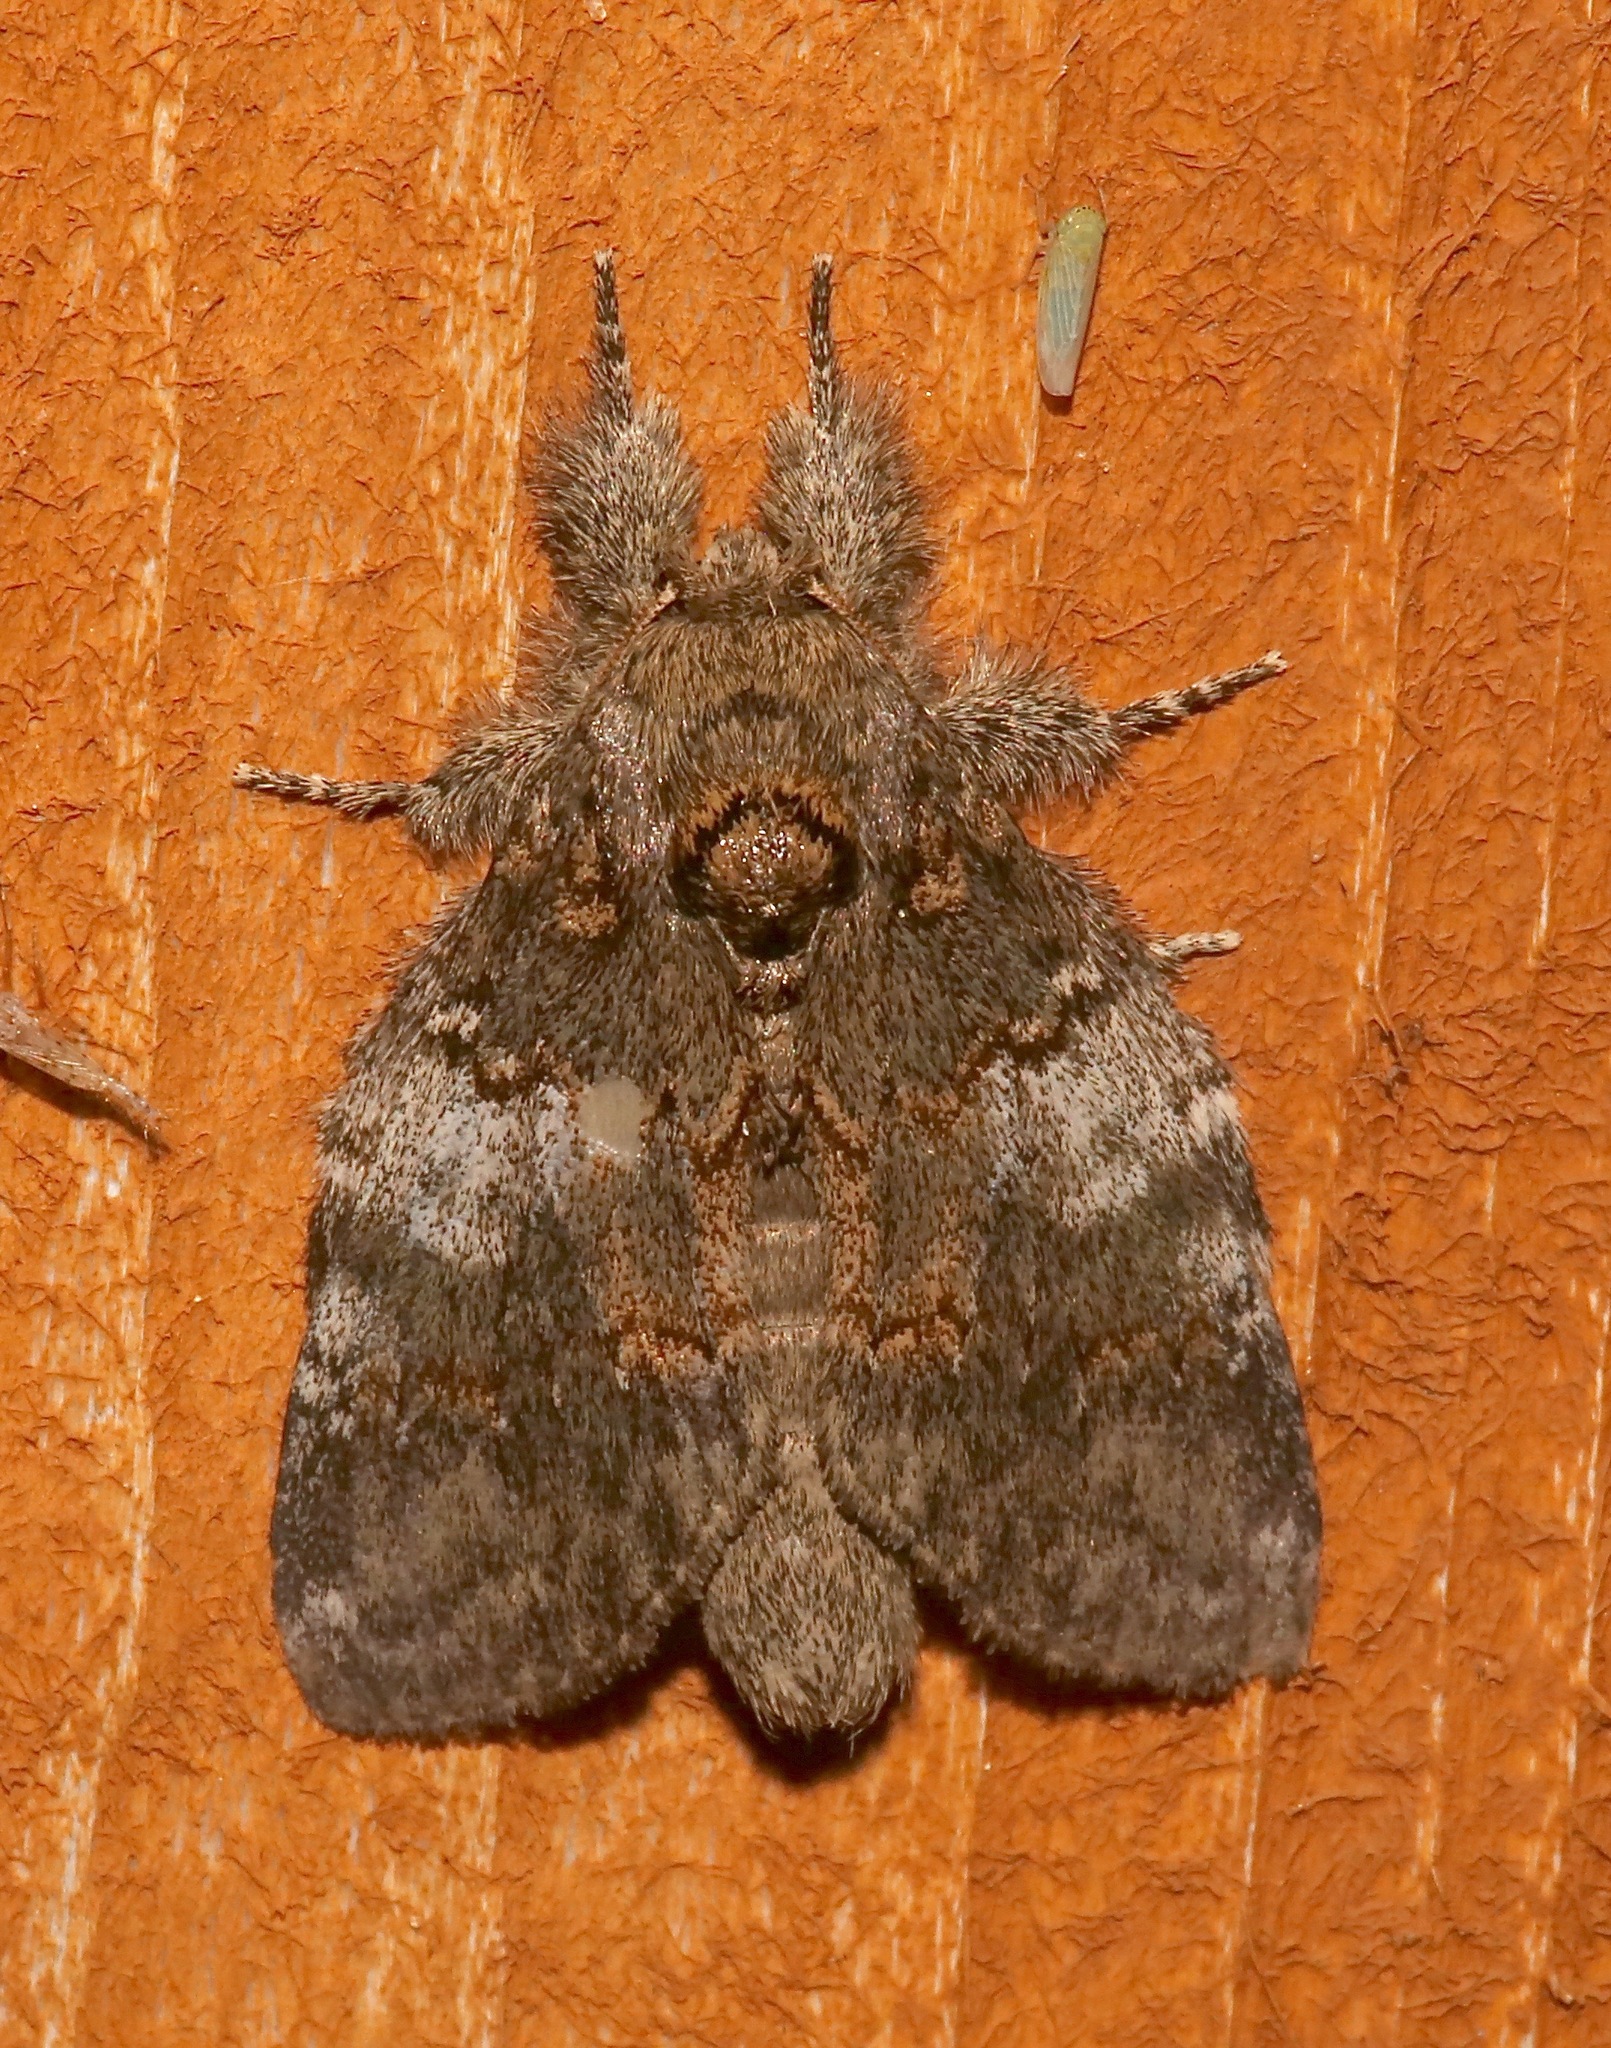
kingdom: Animalia
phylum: Arthropoda
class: Insecta
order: Lepidoptera
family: Notodontidae
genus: Peridea
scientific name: Peridea angulosa
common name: Angulose prominent
